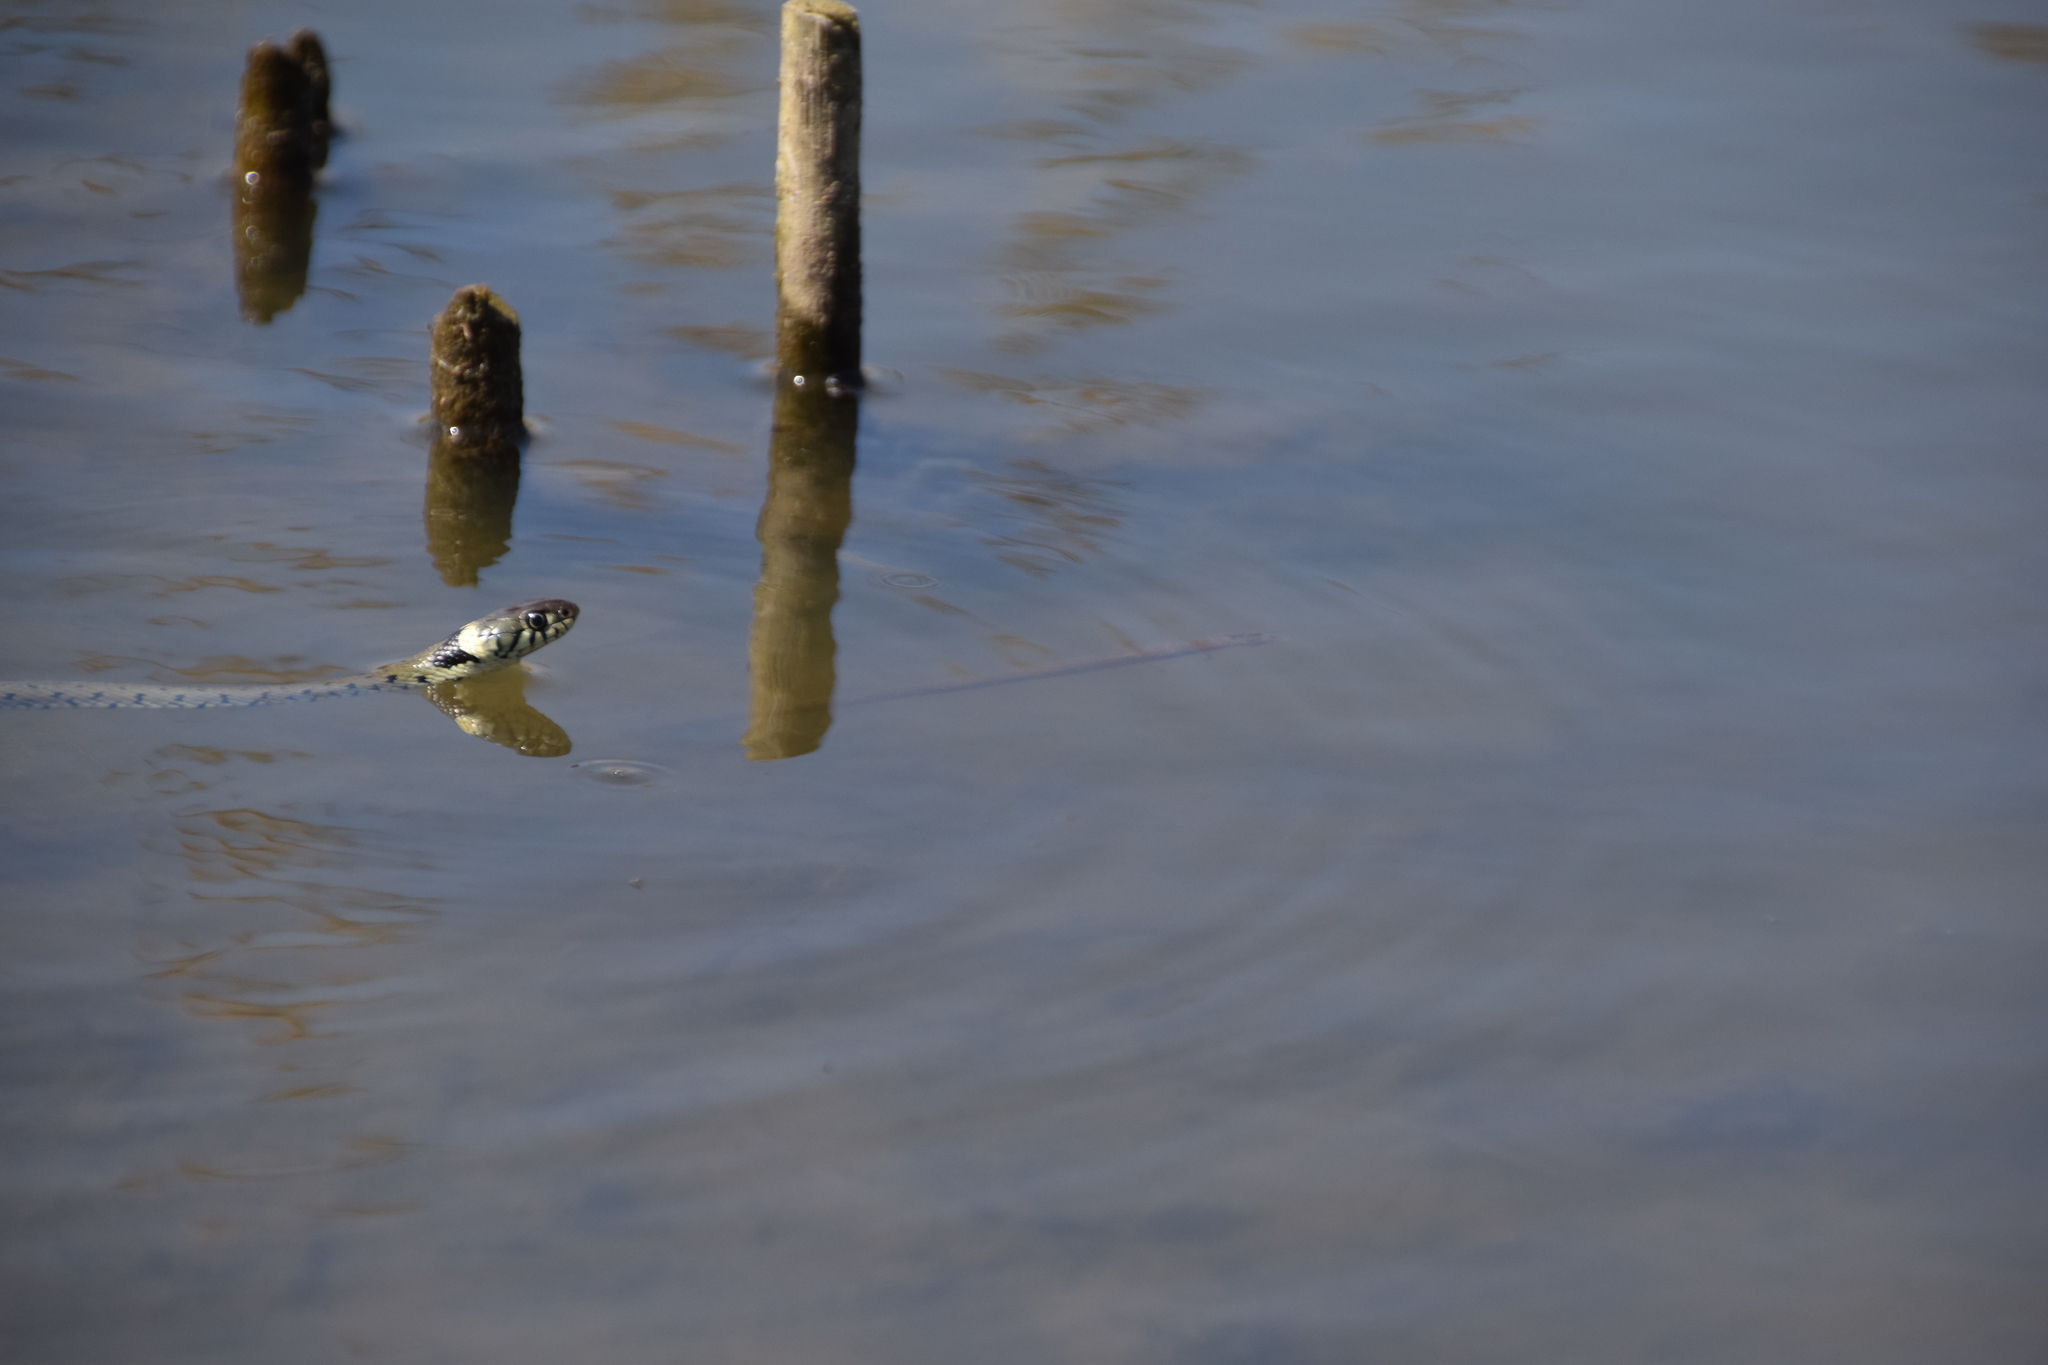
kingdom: Animalia
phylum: Chordata
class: Squamata
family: Colubridae
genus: Natrix
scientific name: Natrix helvetica
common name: Banded grass snake
